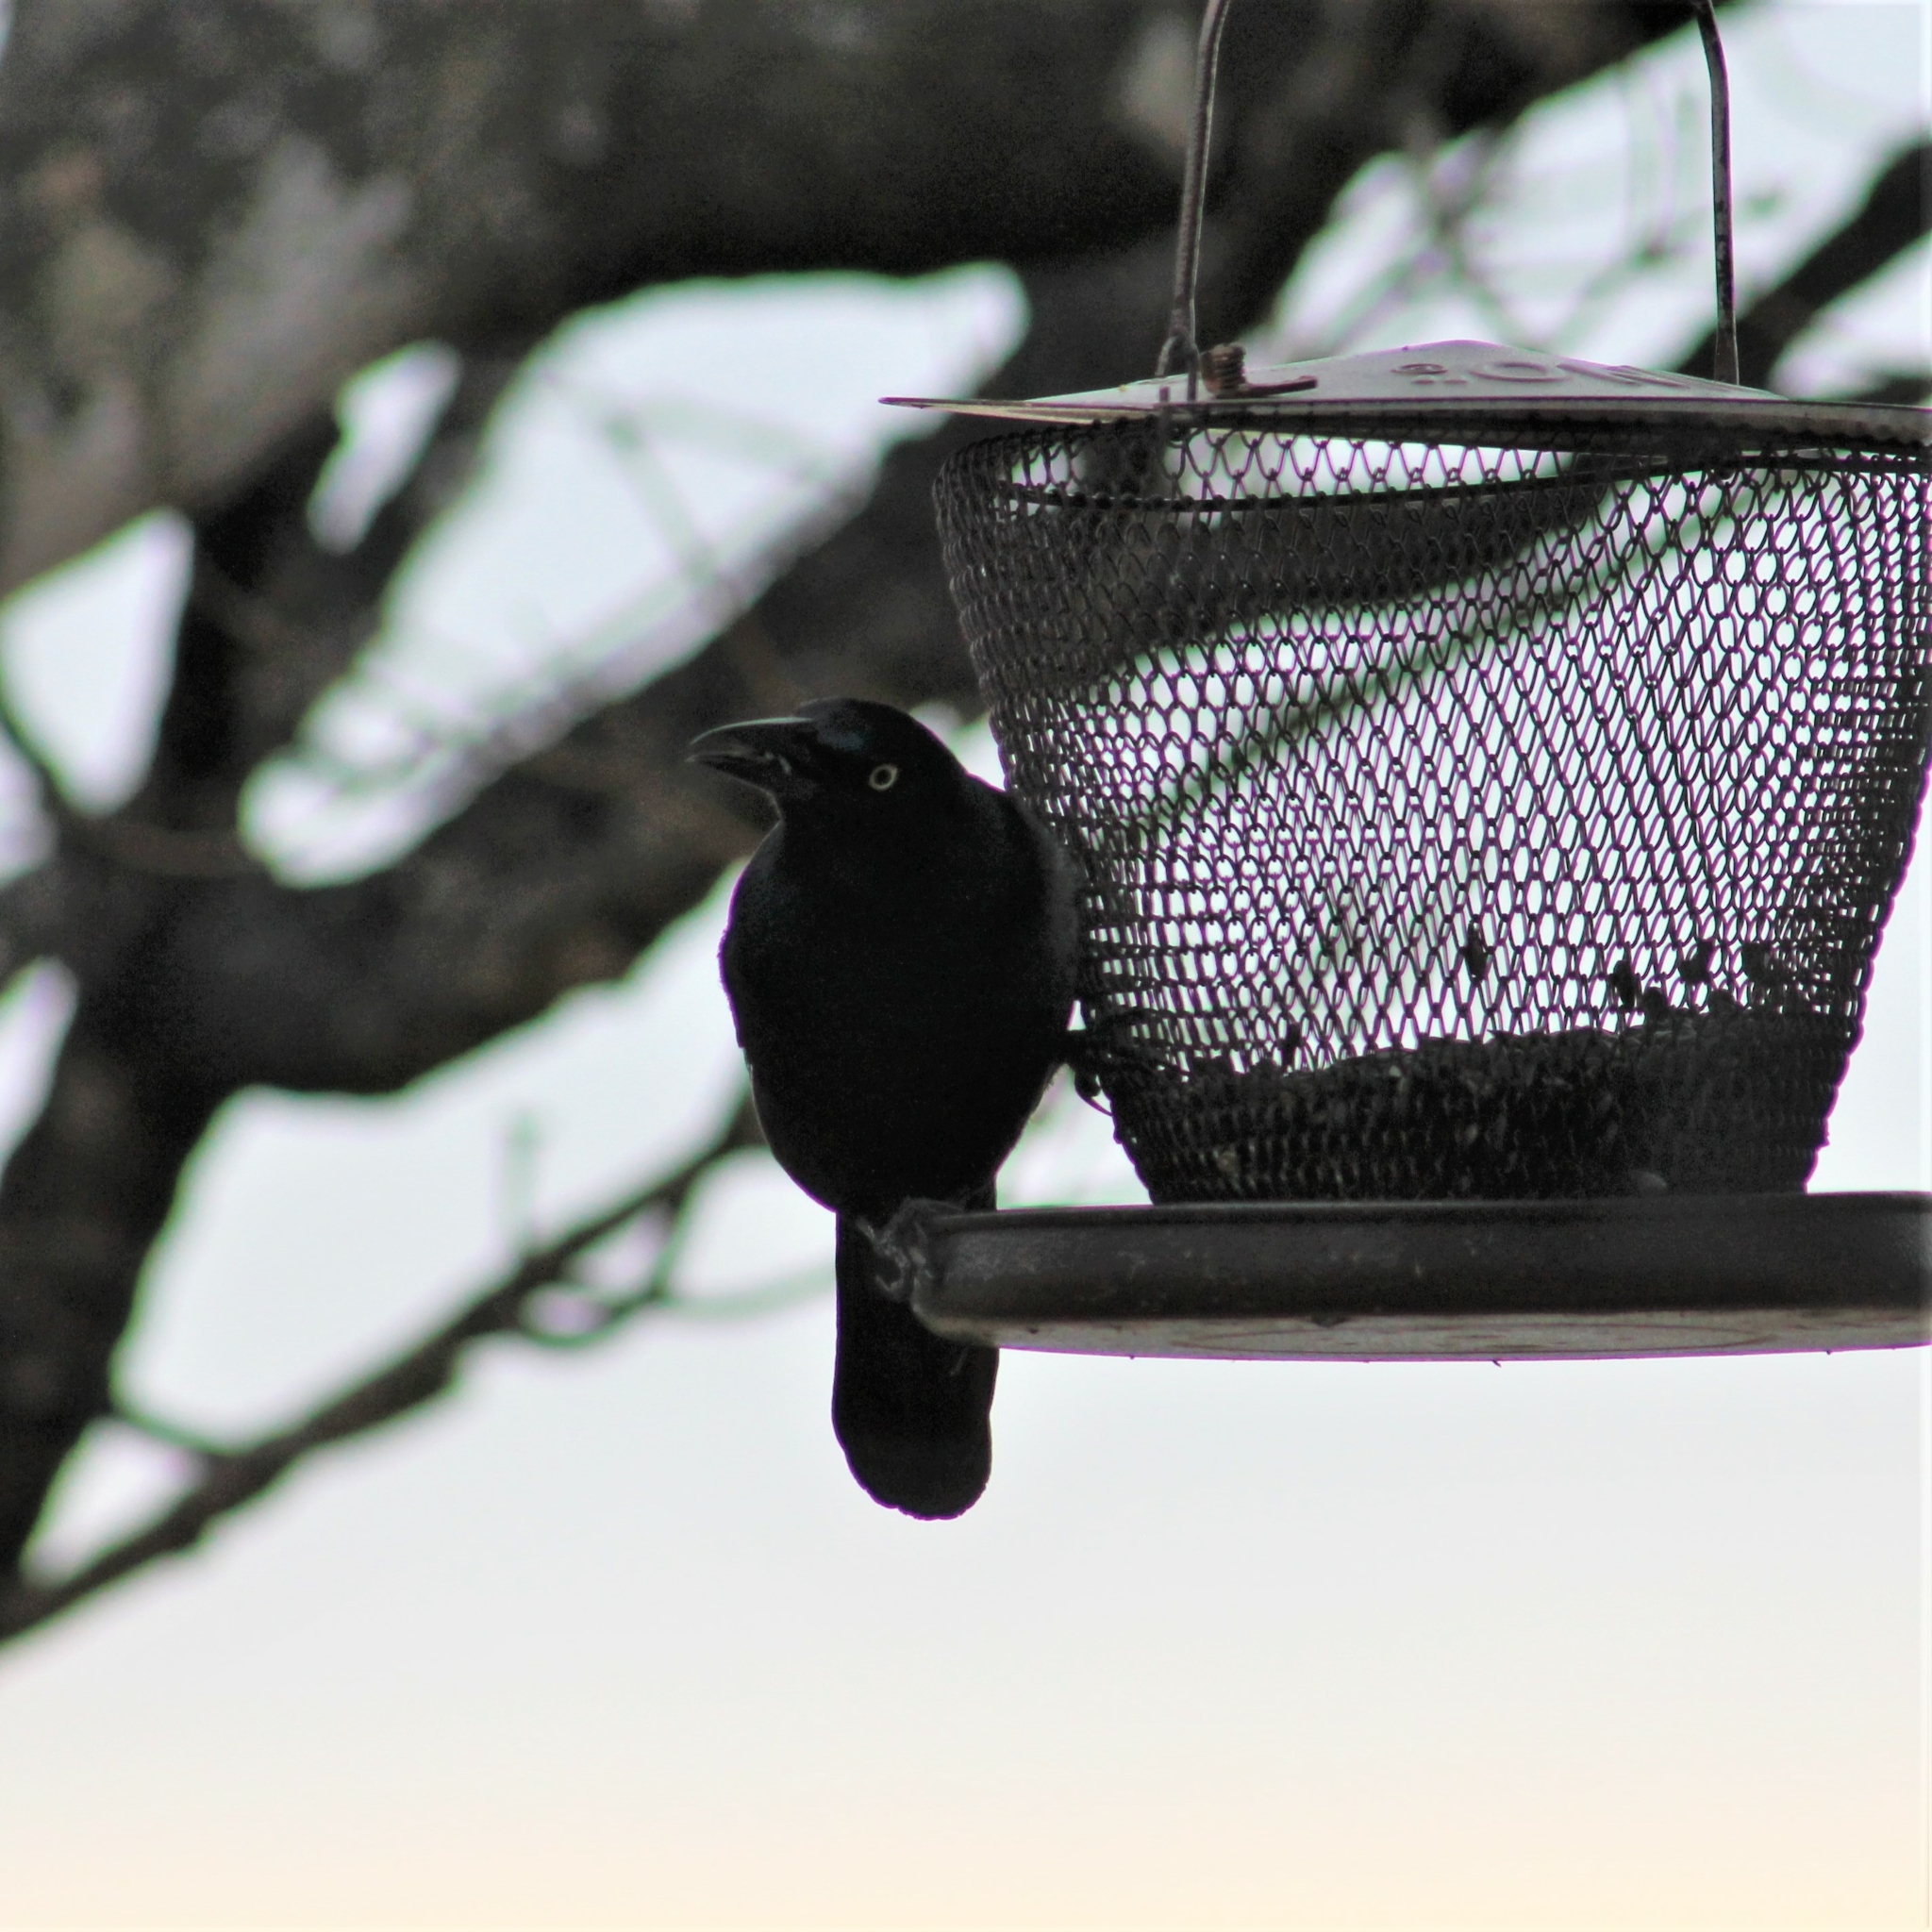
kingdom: Animalia
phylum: Chordata
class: Aves
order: Passeriformes
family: Icteridae
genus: Quiscalus
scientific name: Quiscalus quiscula
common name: Common grackle
